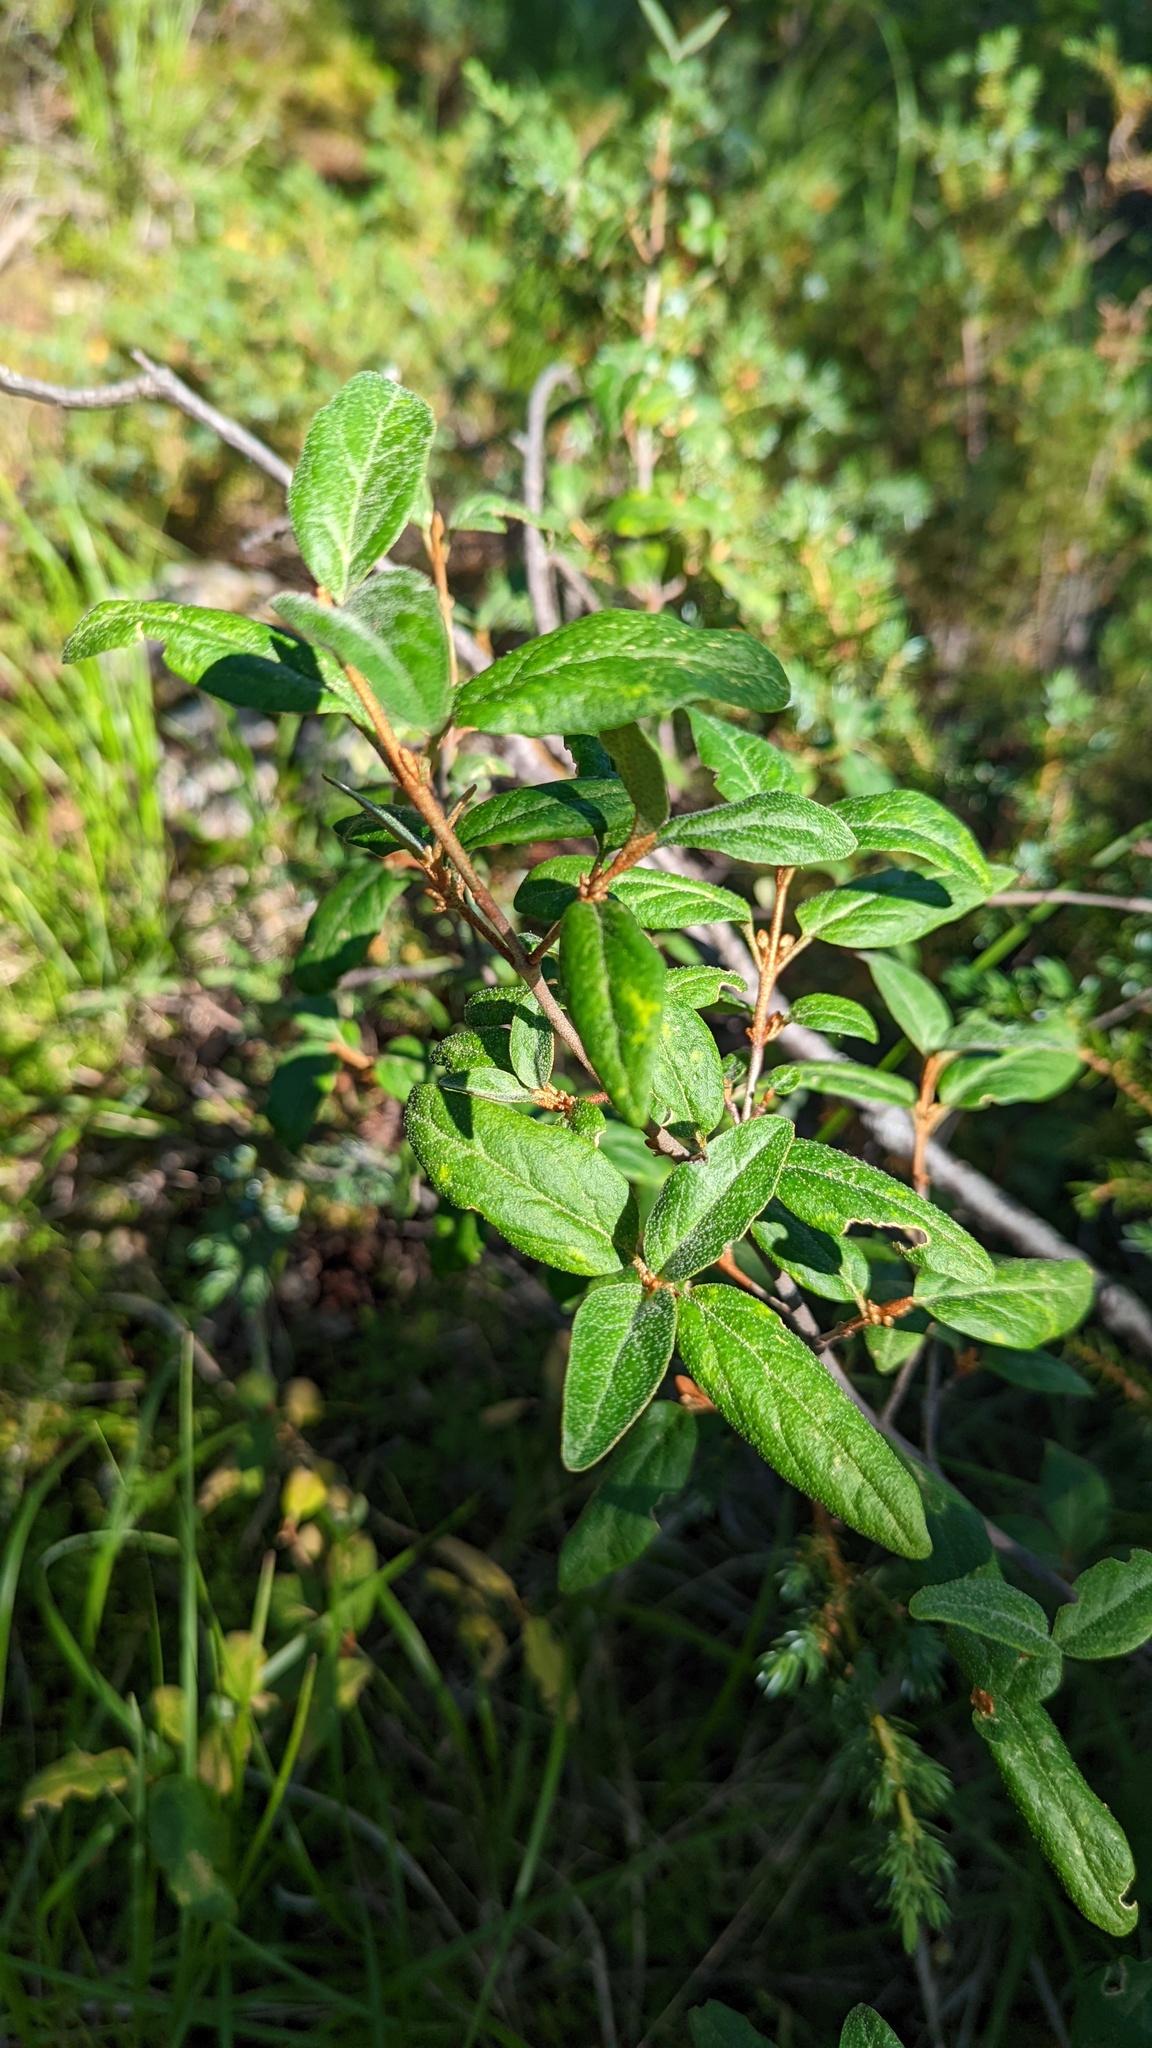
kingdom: Plantae
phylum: Tracheophyta
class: Magnoliopsida
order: Rosales
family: Elaeagnaceae
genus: Shepherdia
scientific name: Shepherdia canadensis
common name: Soapberry
